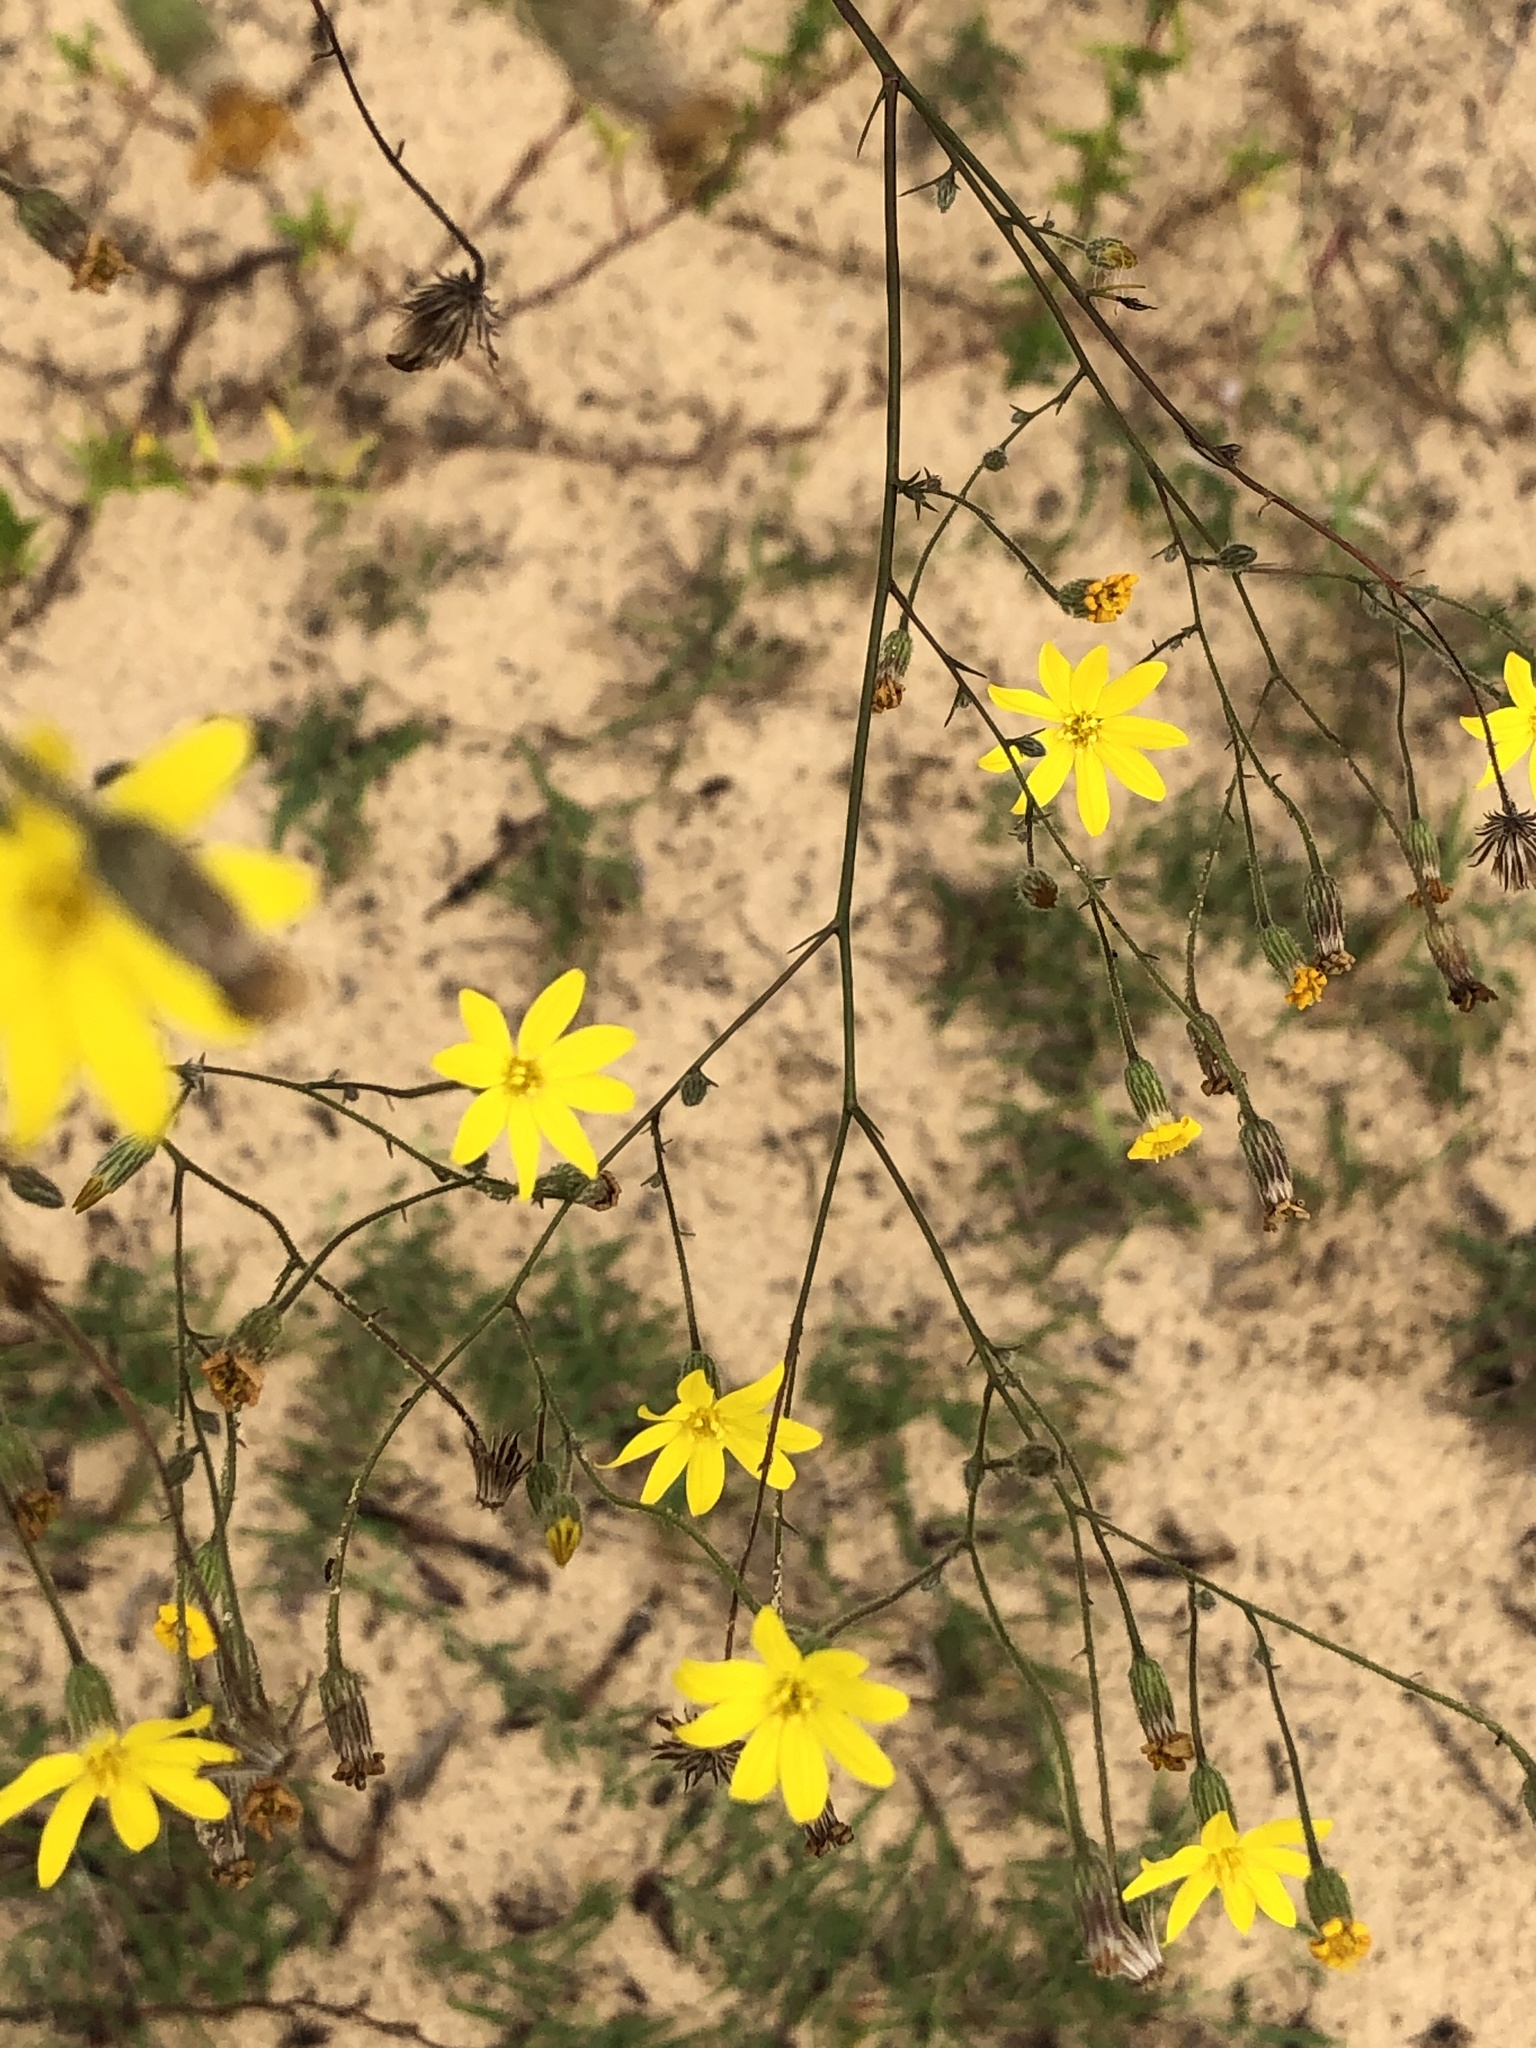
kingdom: Plantae
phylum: Tracheophyta
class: Magnoliopsida
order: Asterales
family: Asteraceae
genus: Croptilon
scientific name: Croptilon divaricatum
